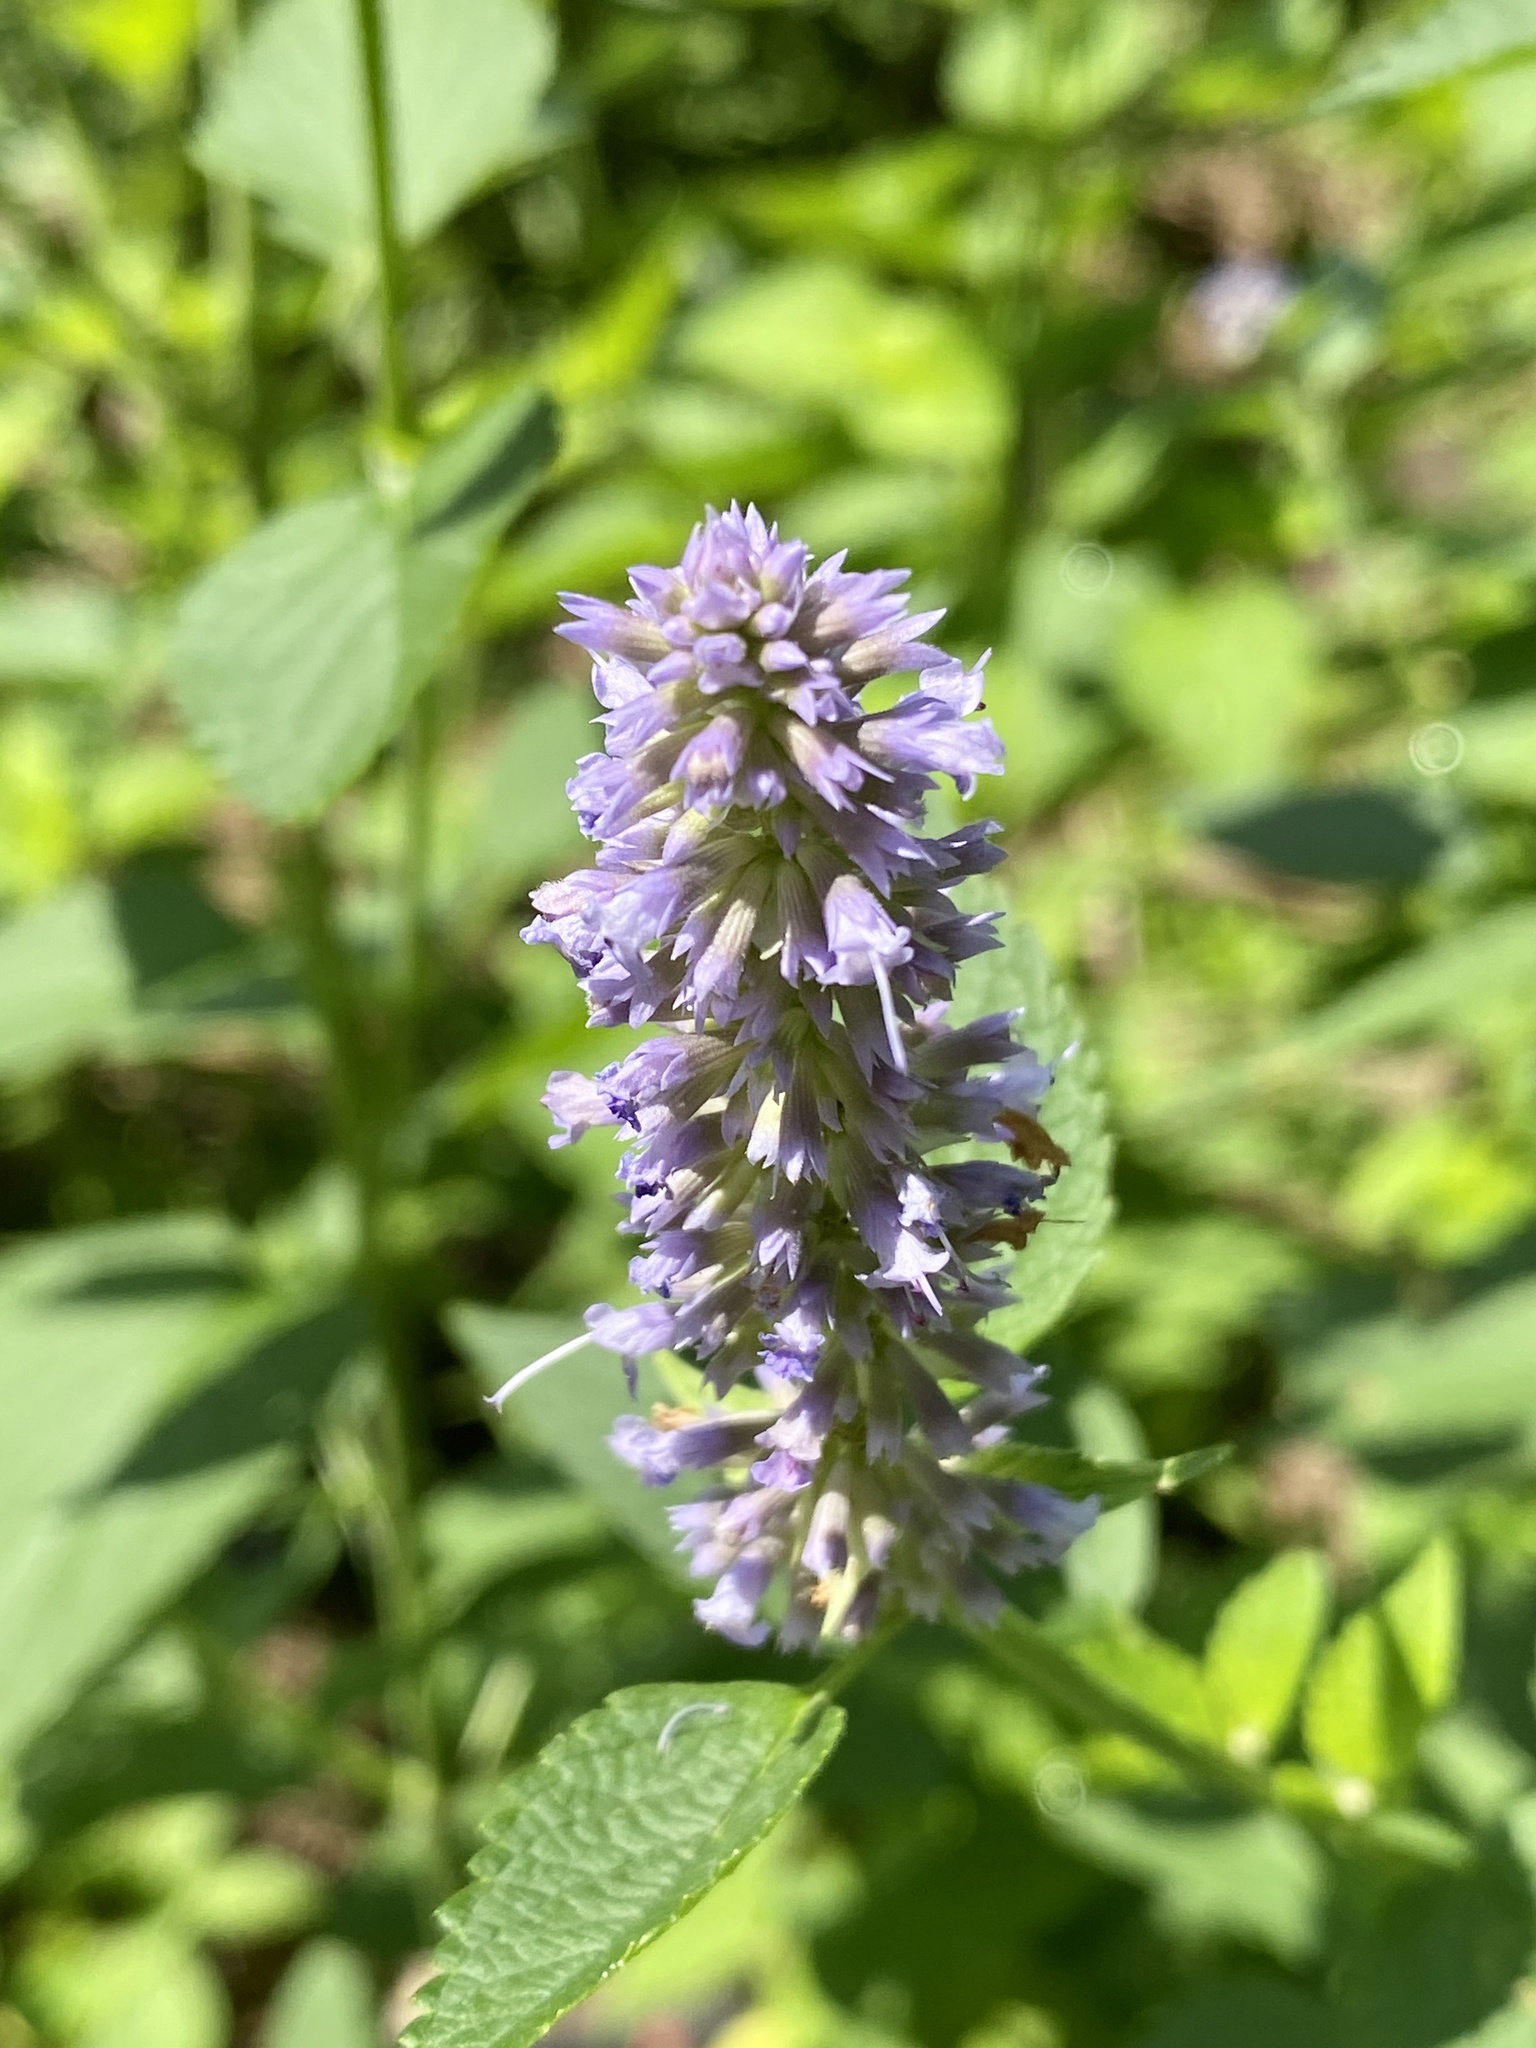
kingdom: Plantae
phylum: Tracheophyta
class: Magnoliopsida
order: Lamiales
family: Lamiaceae
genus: Agastache
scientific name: Agastache foeniculum
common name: Anise hyssop
